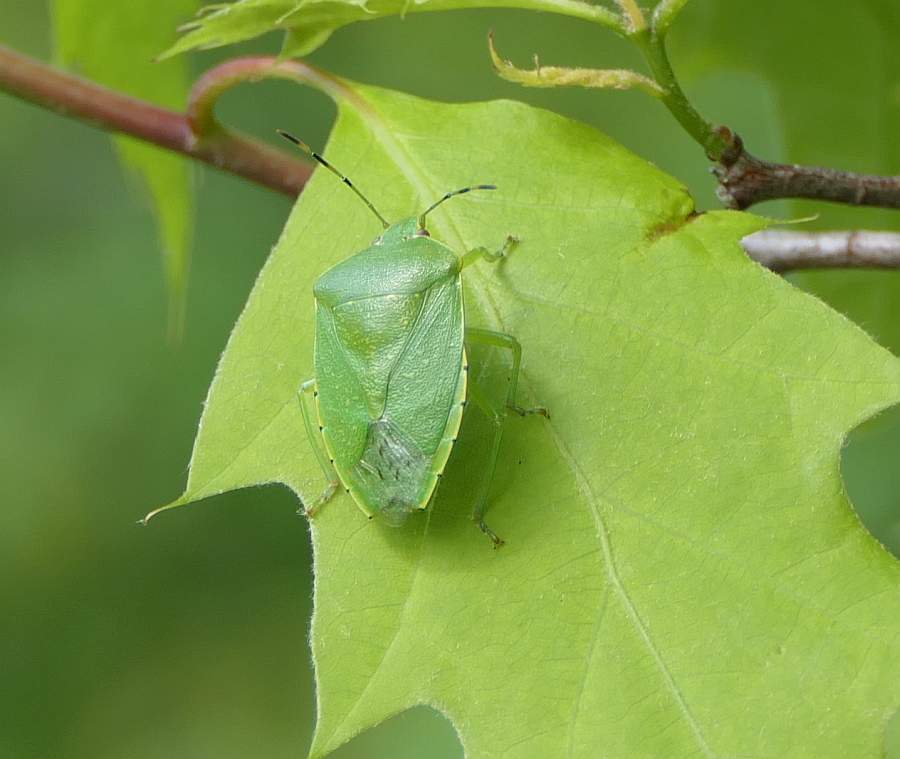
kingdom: Animalia
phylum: Arthropoda
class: Insecta
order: Hemiptera
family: Pentatomidae
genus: Chinavia
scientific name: Chinavia hilaris
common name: Green stink bug
